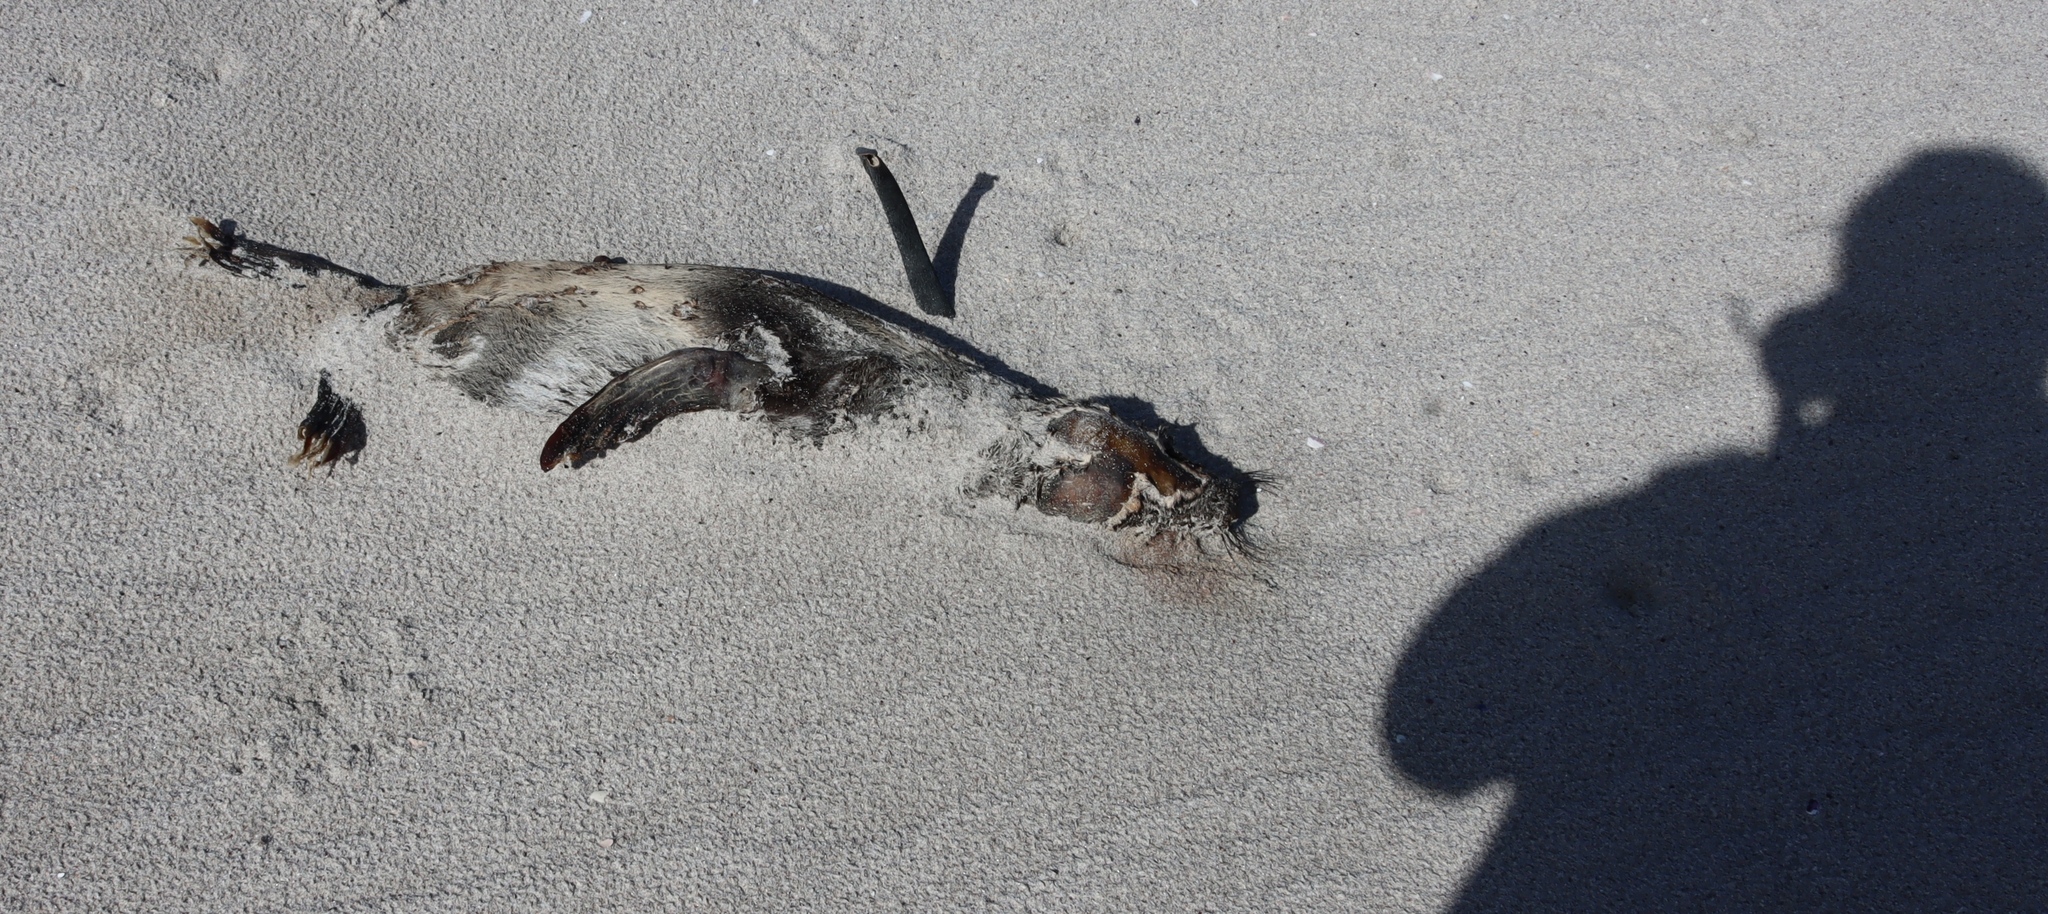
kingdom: Animalia
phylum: Chordata
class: Mammalia
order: Carnivora
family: Otariidae
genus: Arctocephalus
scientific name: Arctocephalus pusillus
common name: Brown fur seal
